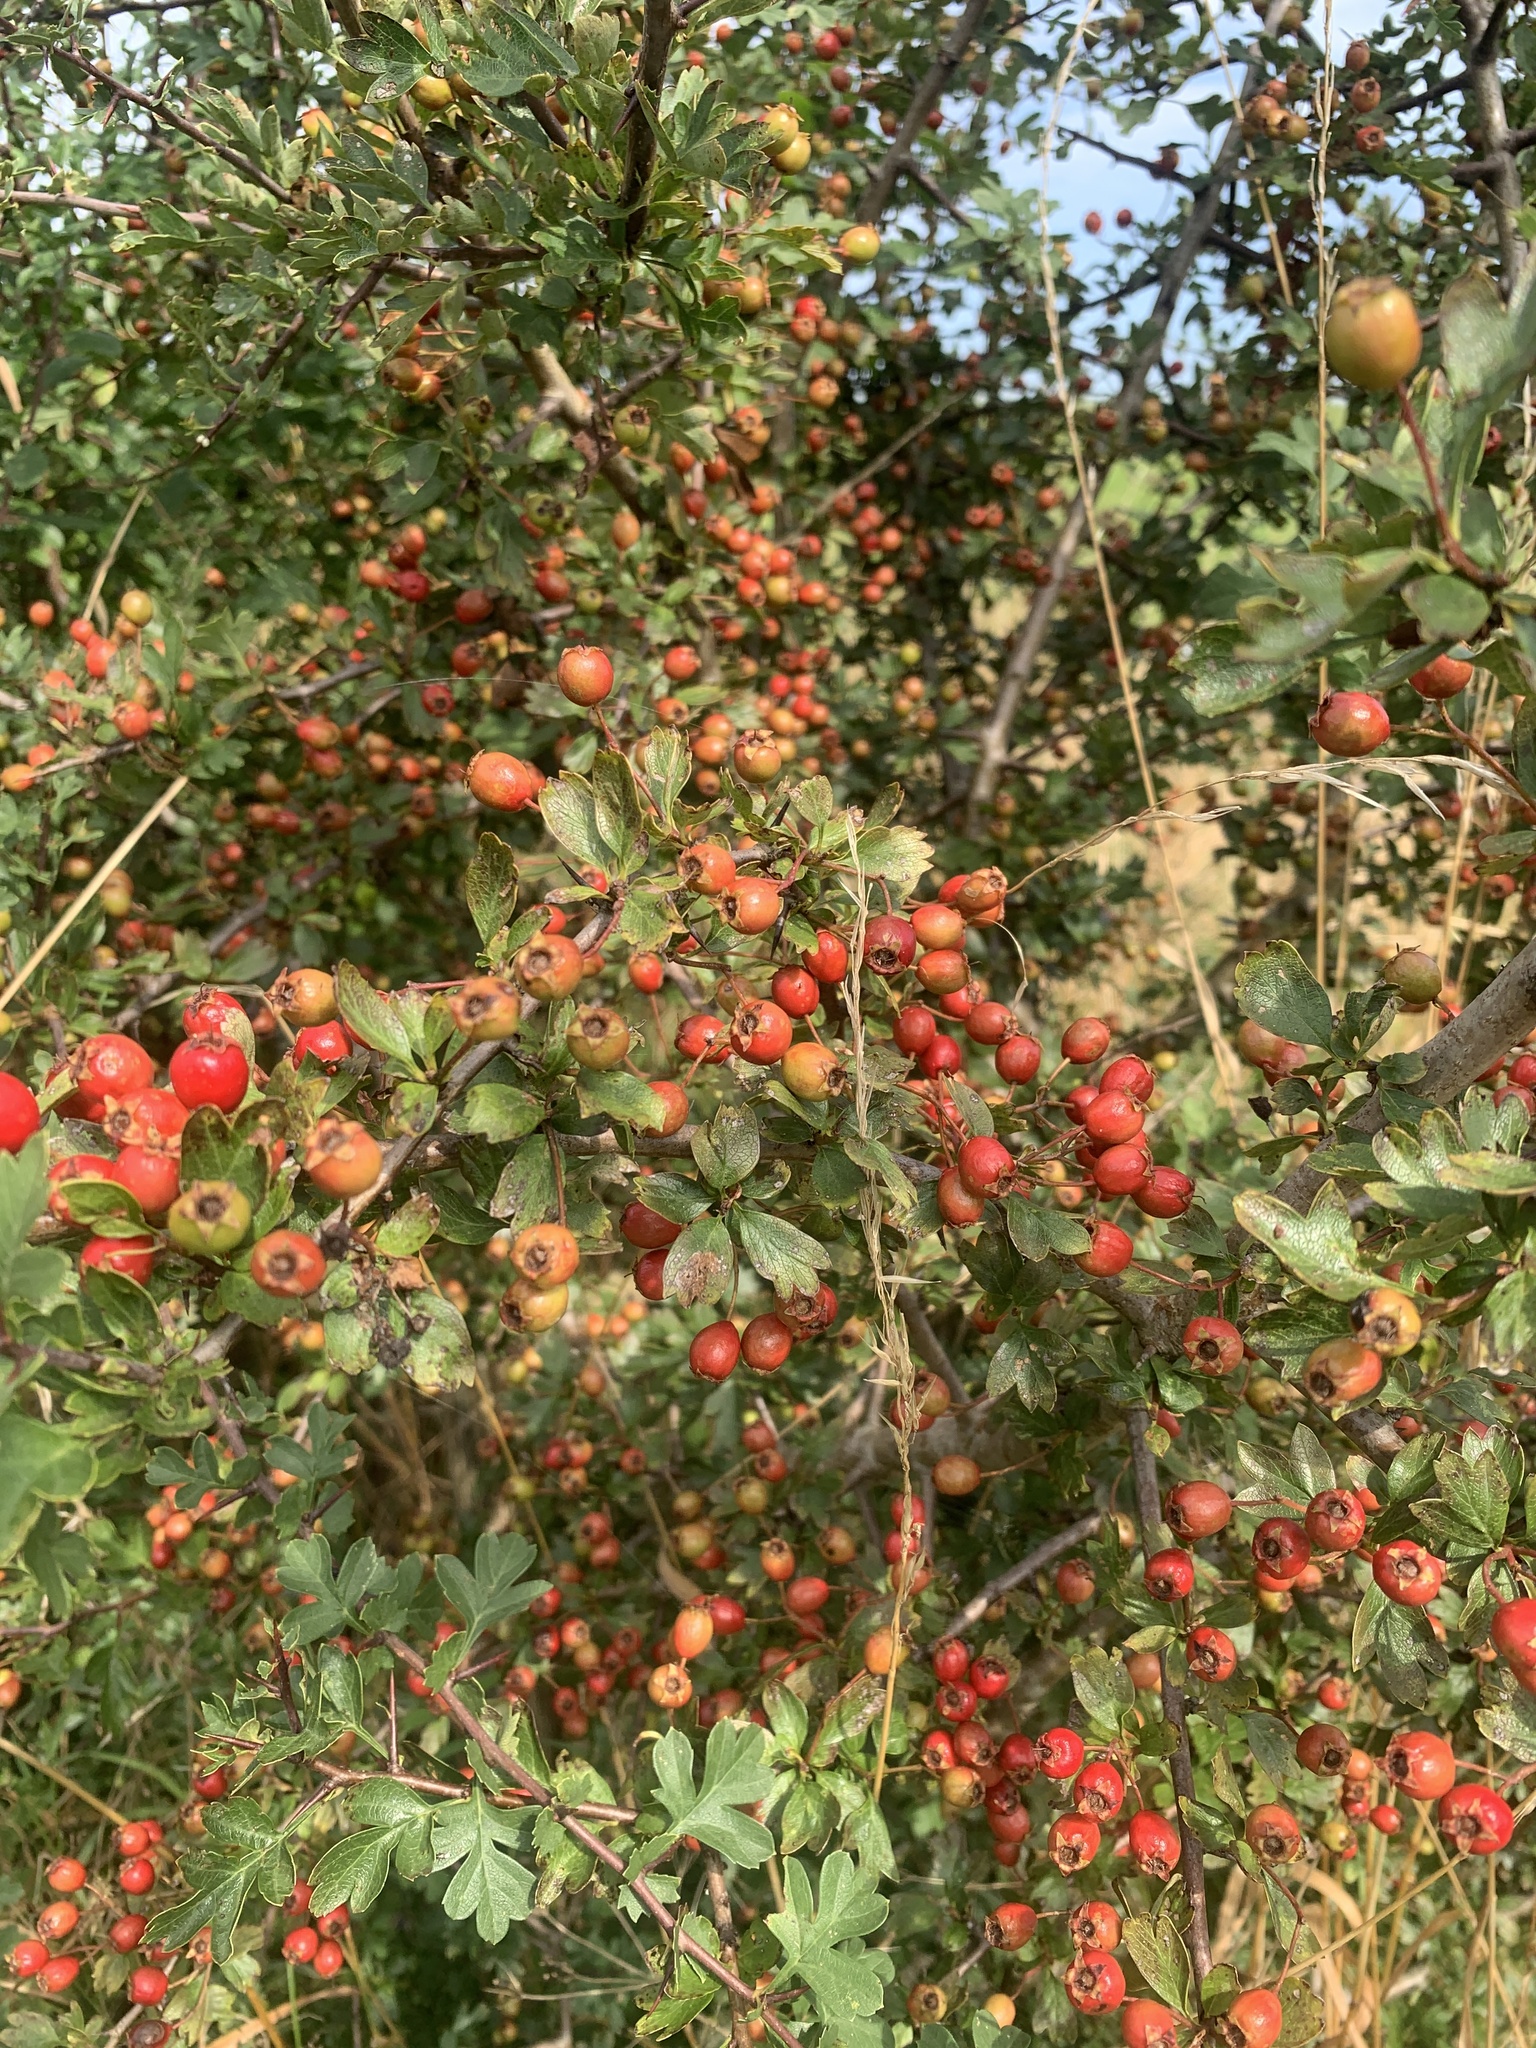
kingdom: Plantae
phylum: Tracheophyta
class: Magnoliopsida
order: Rosales
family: Rosaceae
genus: Crataegus
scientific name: Crataegus monogyna
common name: Hawthorn
